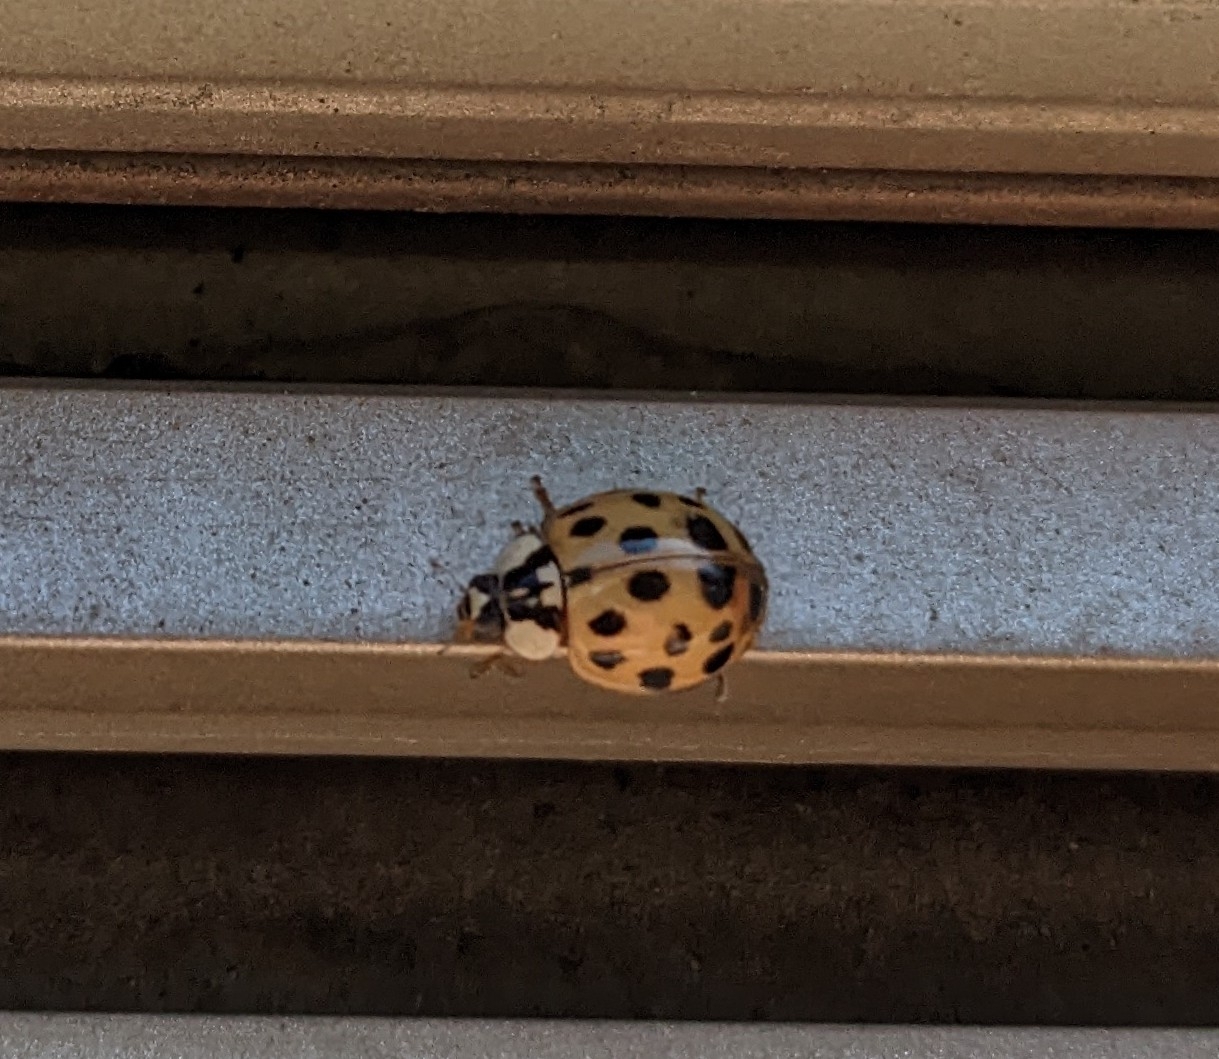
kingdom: Animalia
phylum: Arthropoda
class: Insecta
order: Coleoptera
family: Coccinellidae
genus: Harmonia
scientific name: Harmonia axyridis
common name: Harlequin ladybird
